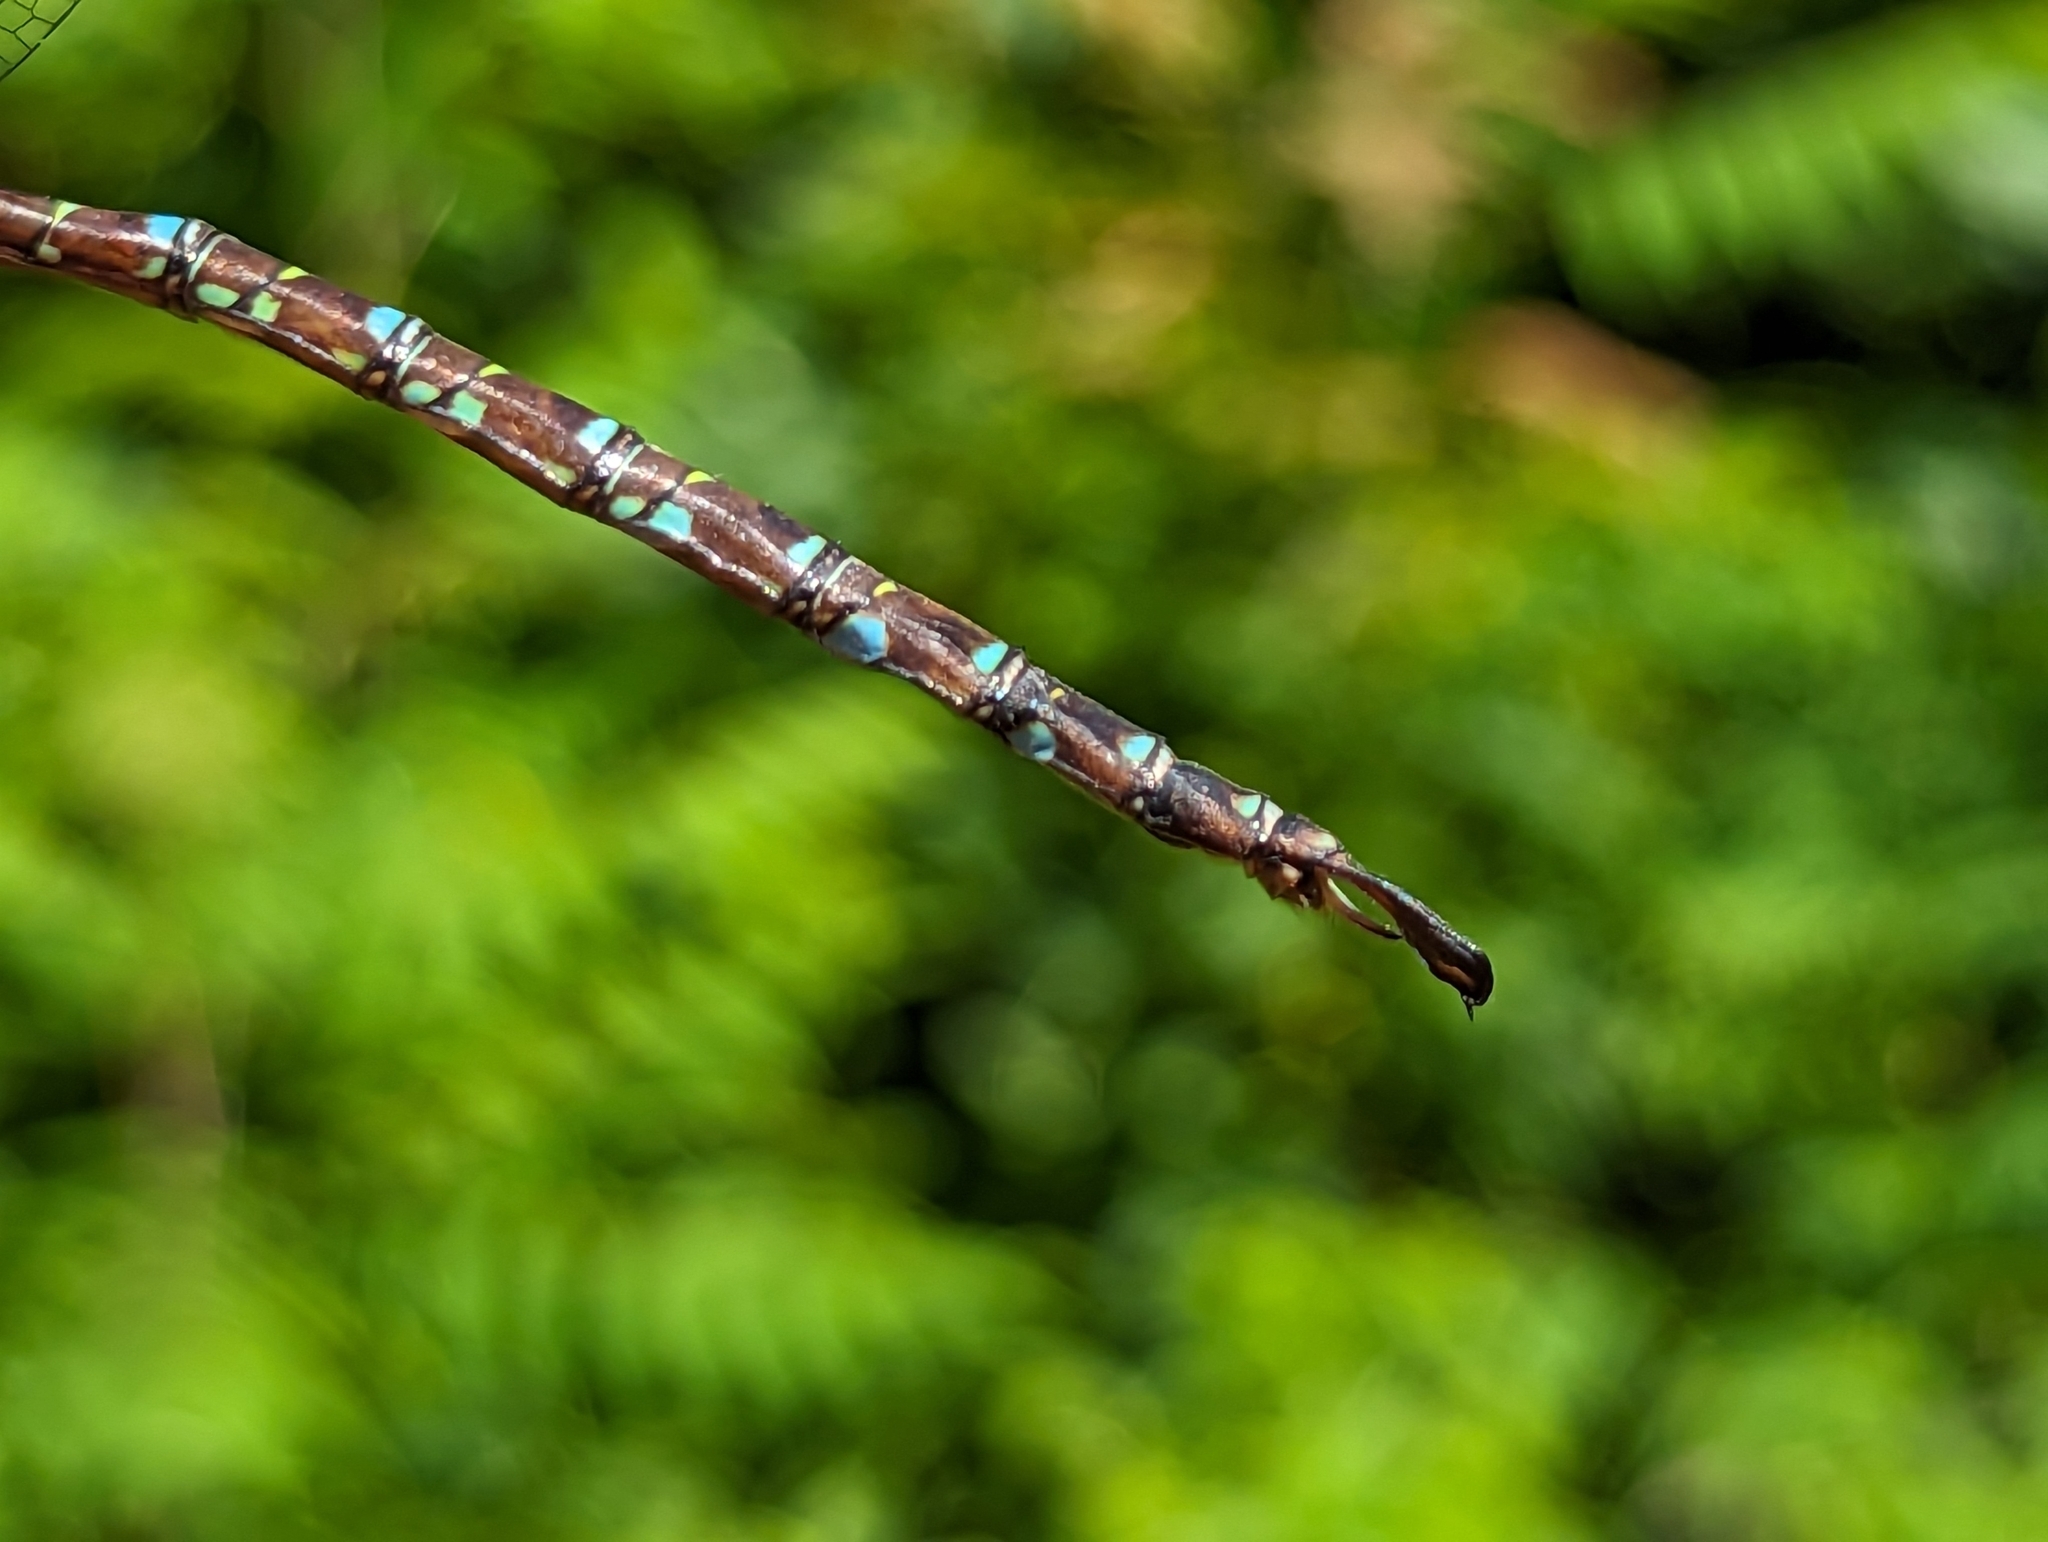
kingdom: Animalia
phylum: Arthropoda
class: Insecta
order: Odonata
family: Aeshnidae
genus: Aeshna
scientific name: Aeshna umbrosa
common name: Shadow darner
